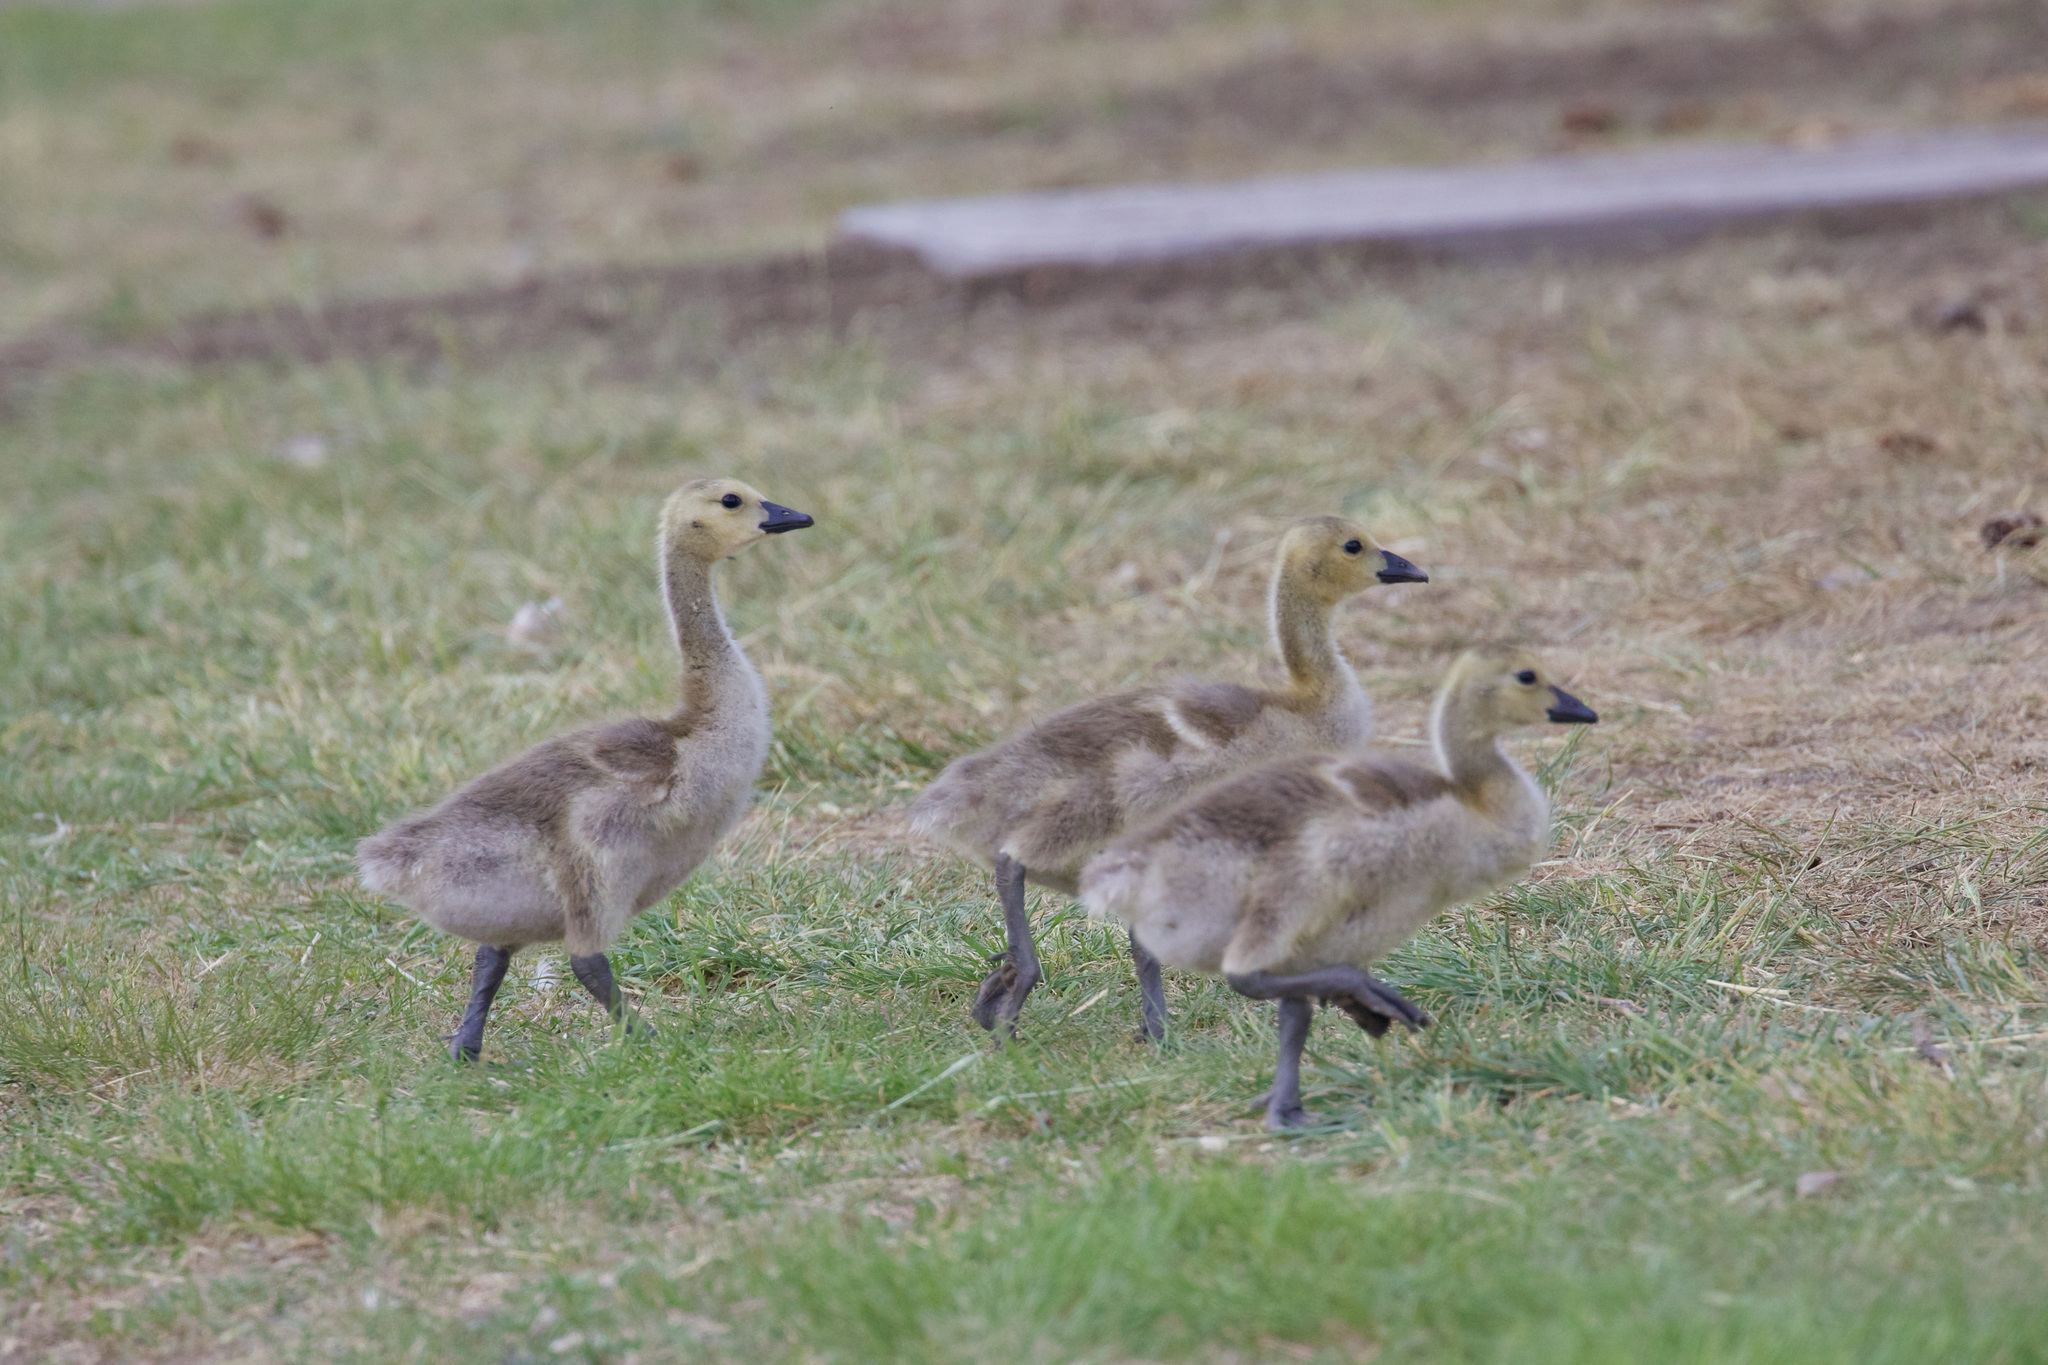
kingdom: Animalia
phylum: Chordata
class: Aves
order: Anseriformes
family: Anatidae
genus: Branta
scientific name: Branta canadensis
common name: Canada goose
